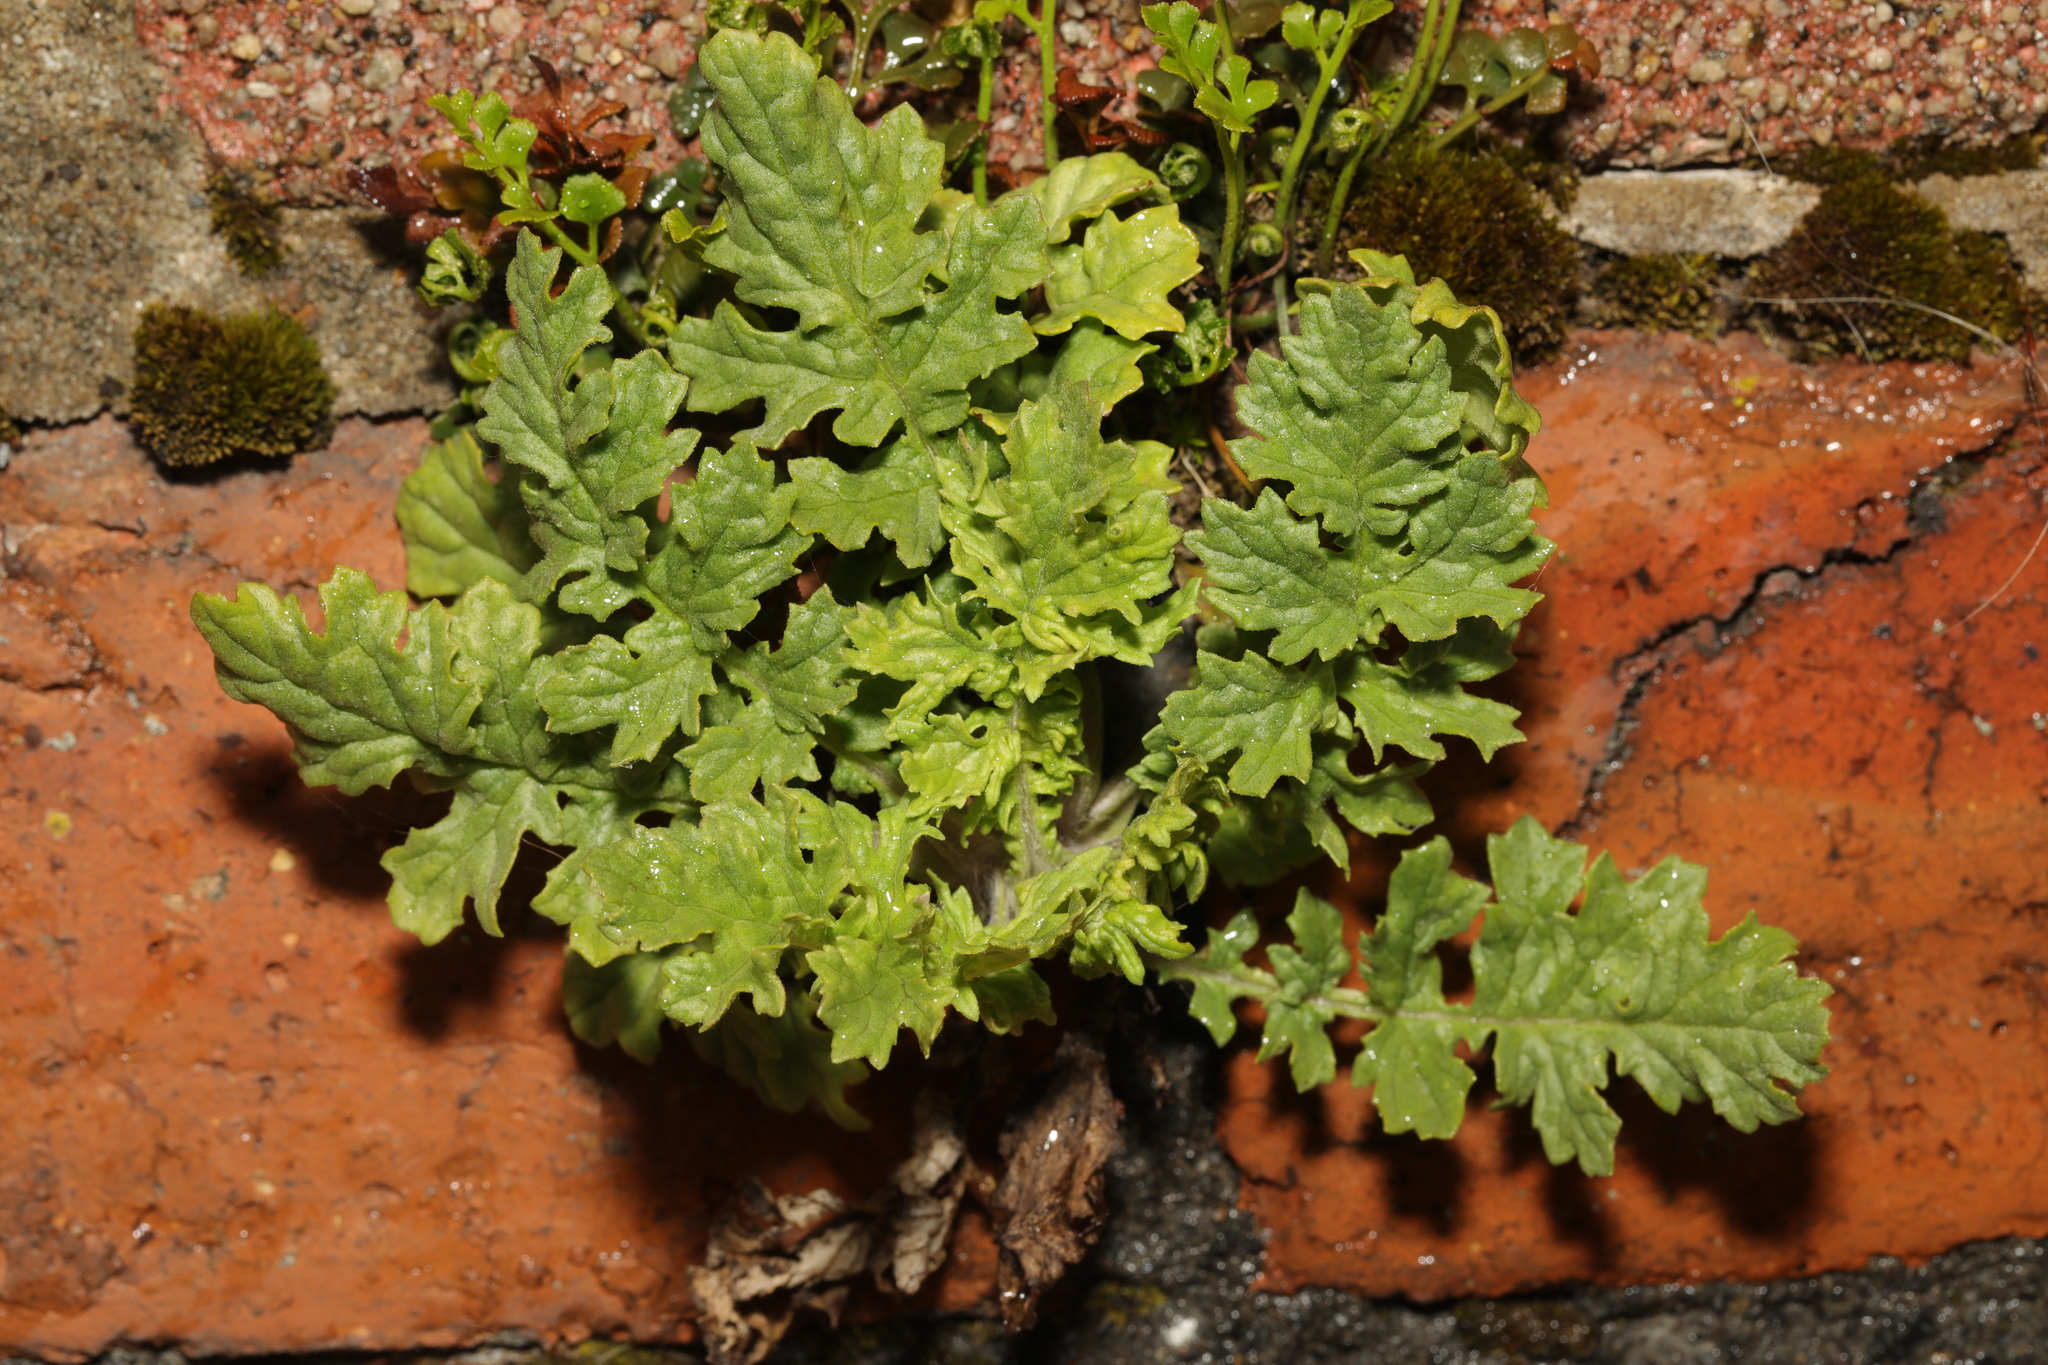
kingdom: Plantae
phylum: Tracheophyta
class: Magnoliopsida
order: Asterales
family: Asteraceae
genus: Jacobaea
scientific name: Jacobaea vulgaris
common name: Stinking willie
